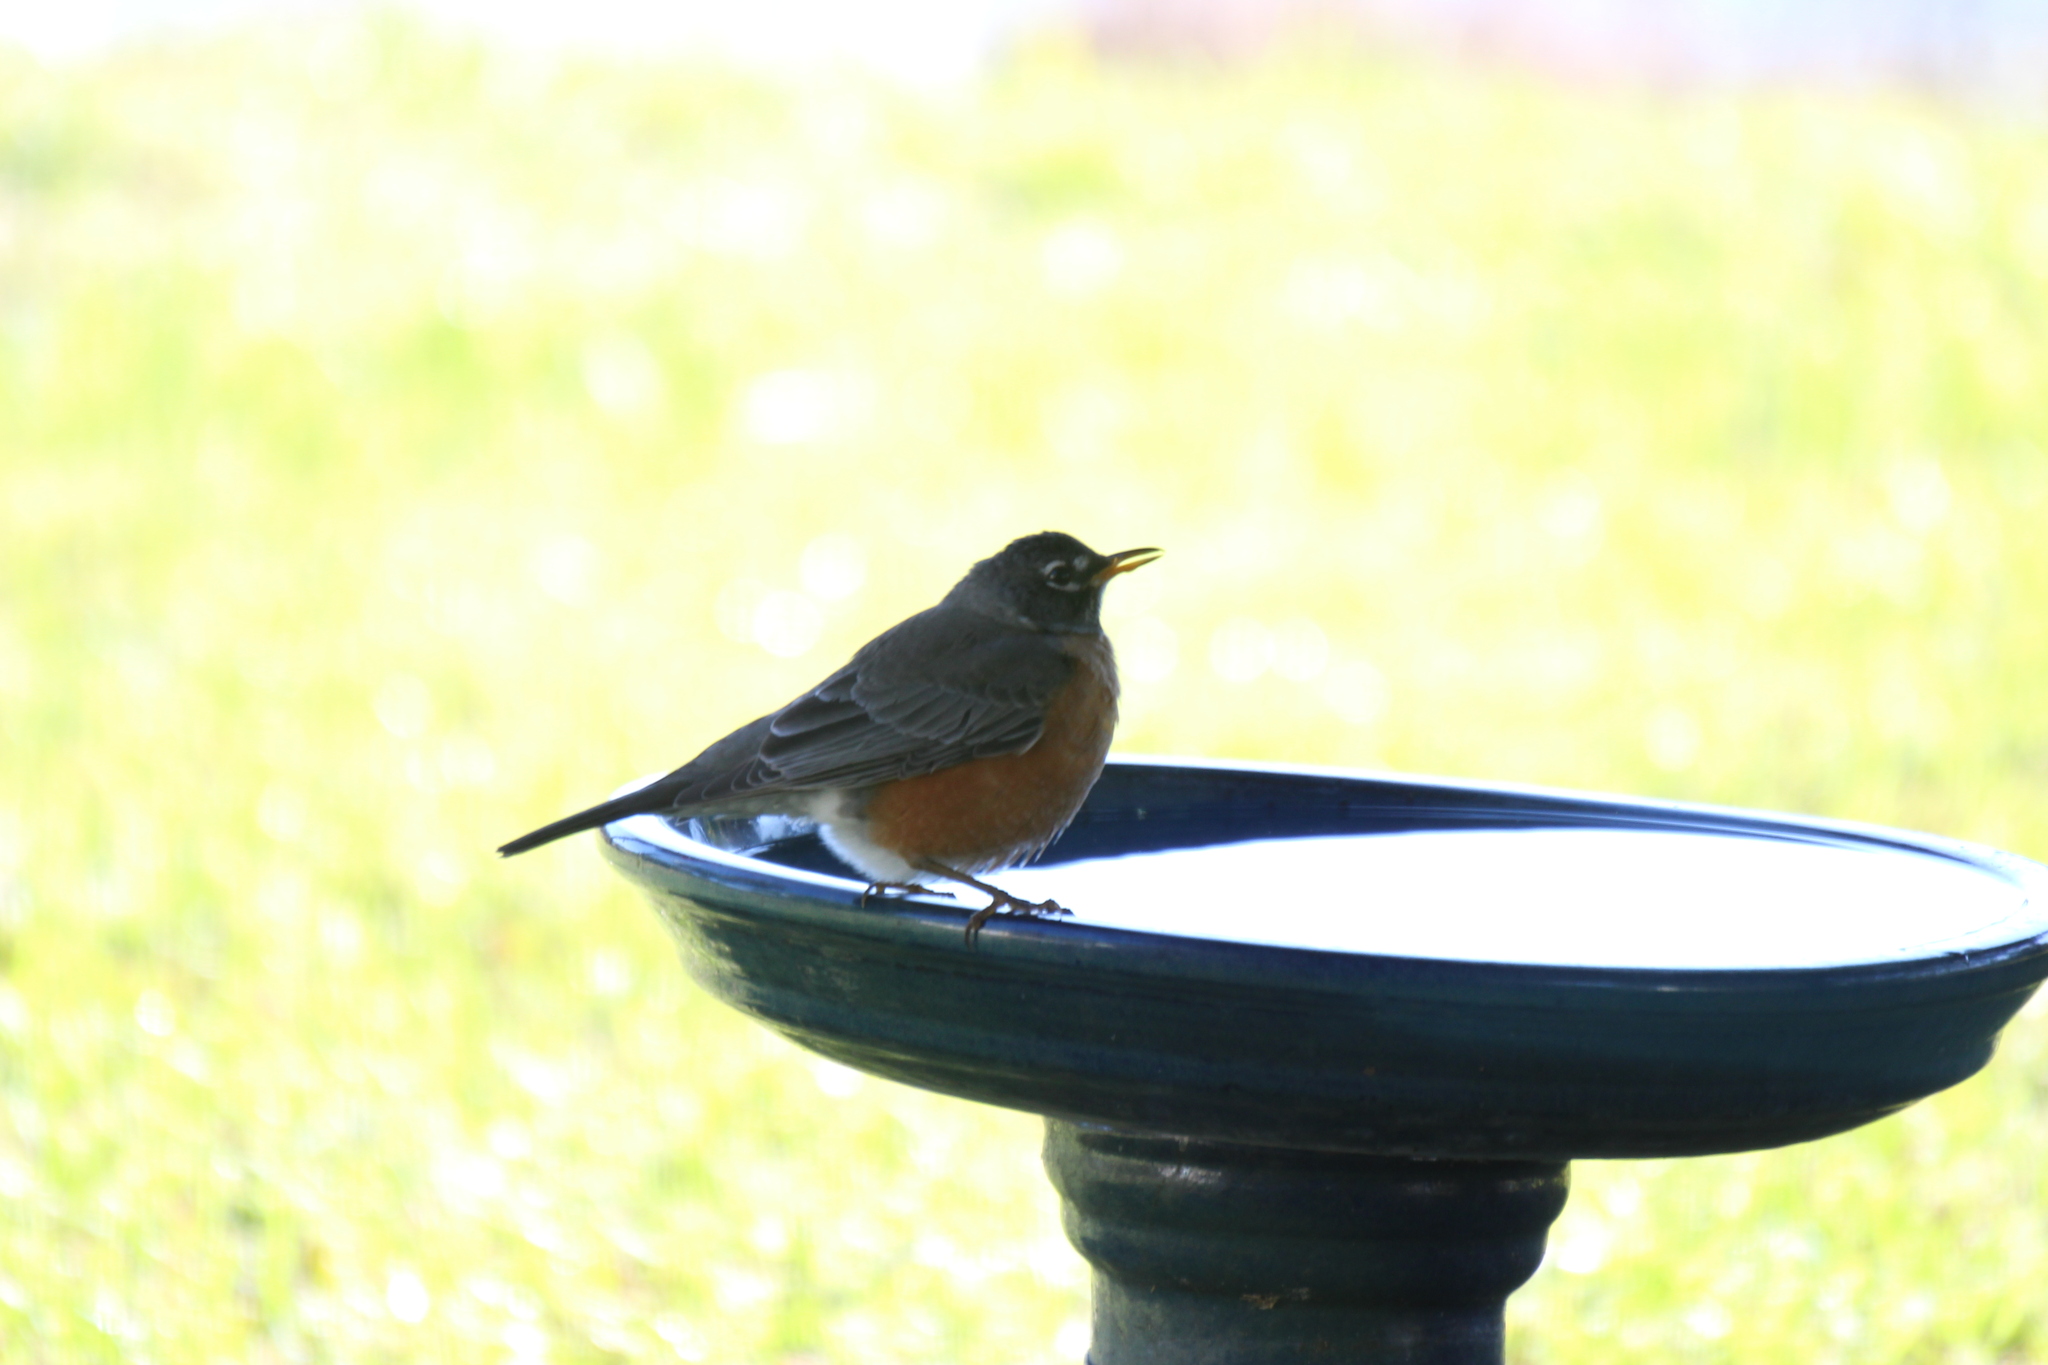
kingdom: Animalia
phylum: Chordata
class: Aves
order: Passeriformes
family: Turdidae
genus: Turdus
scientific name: Turdus migratorius
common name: American robin
